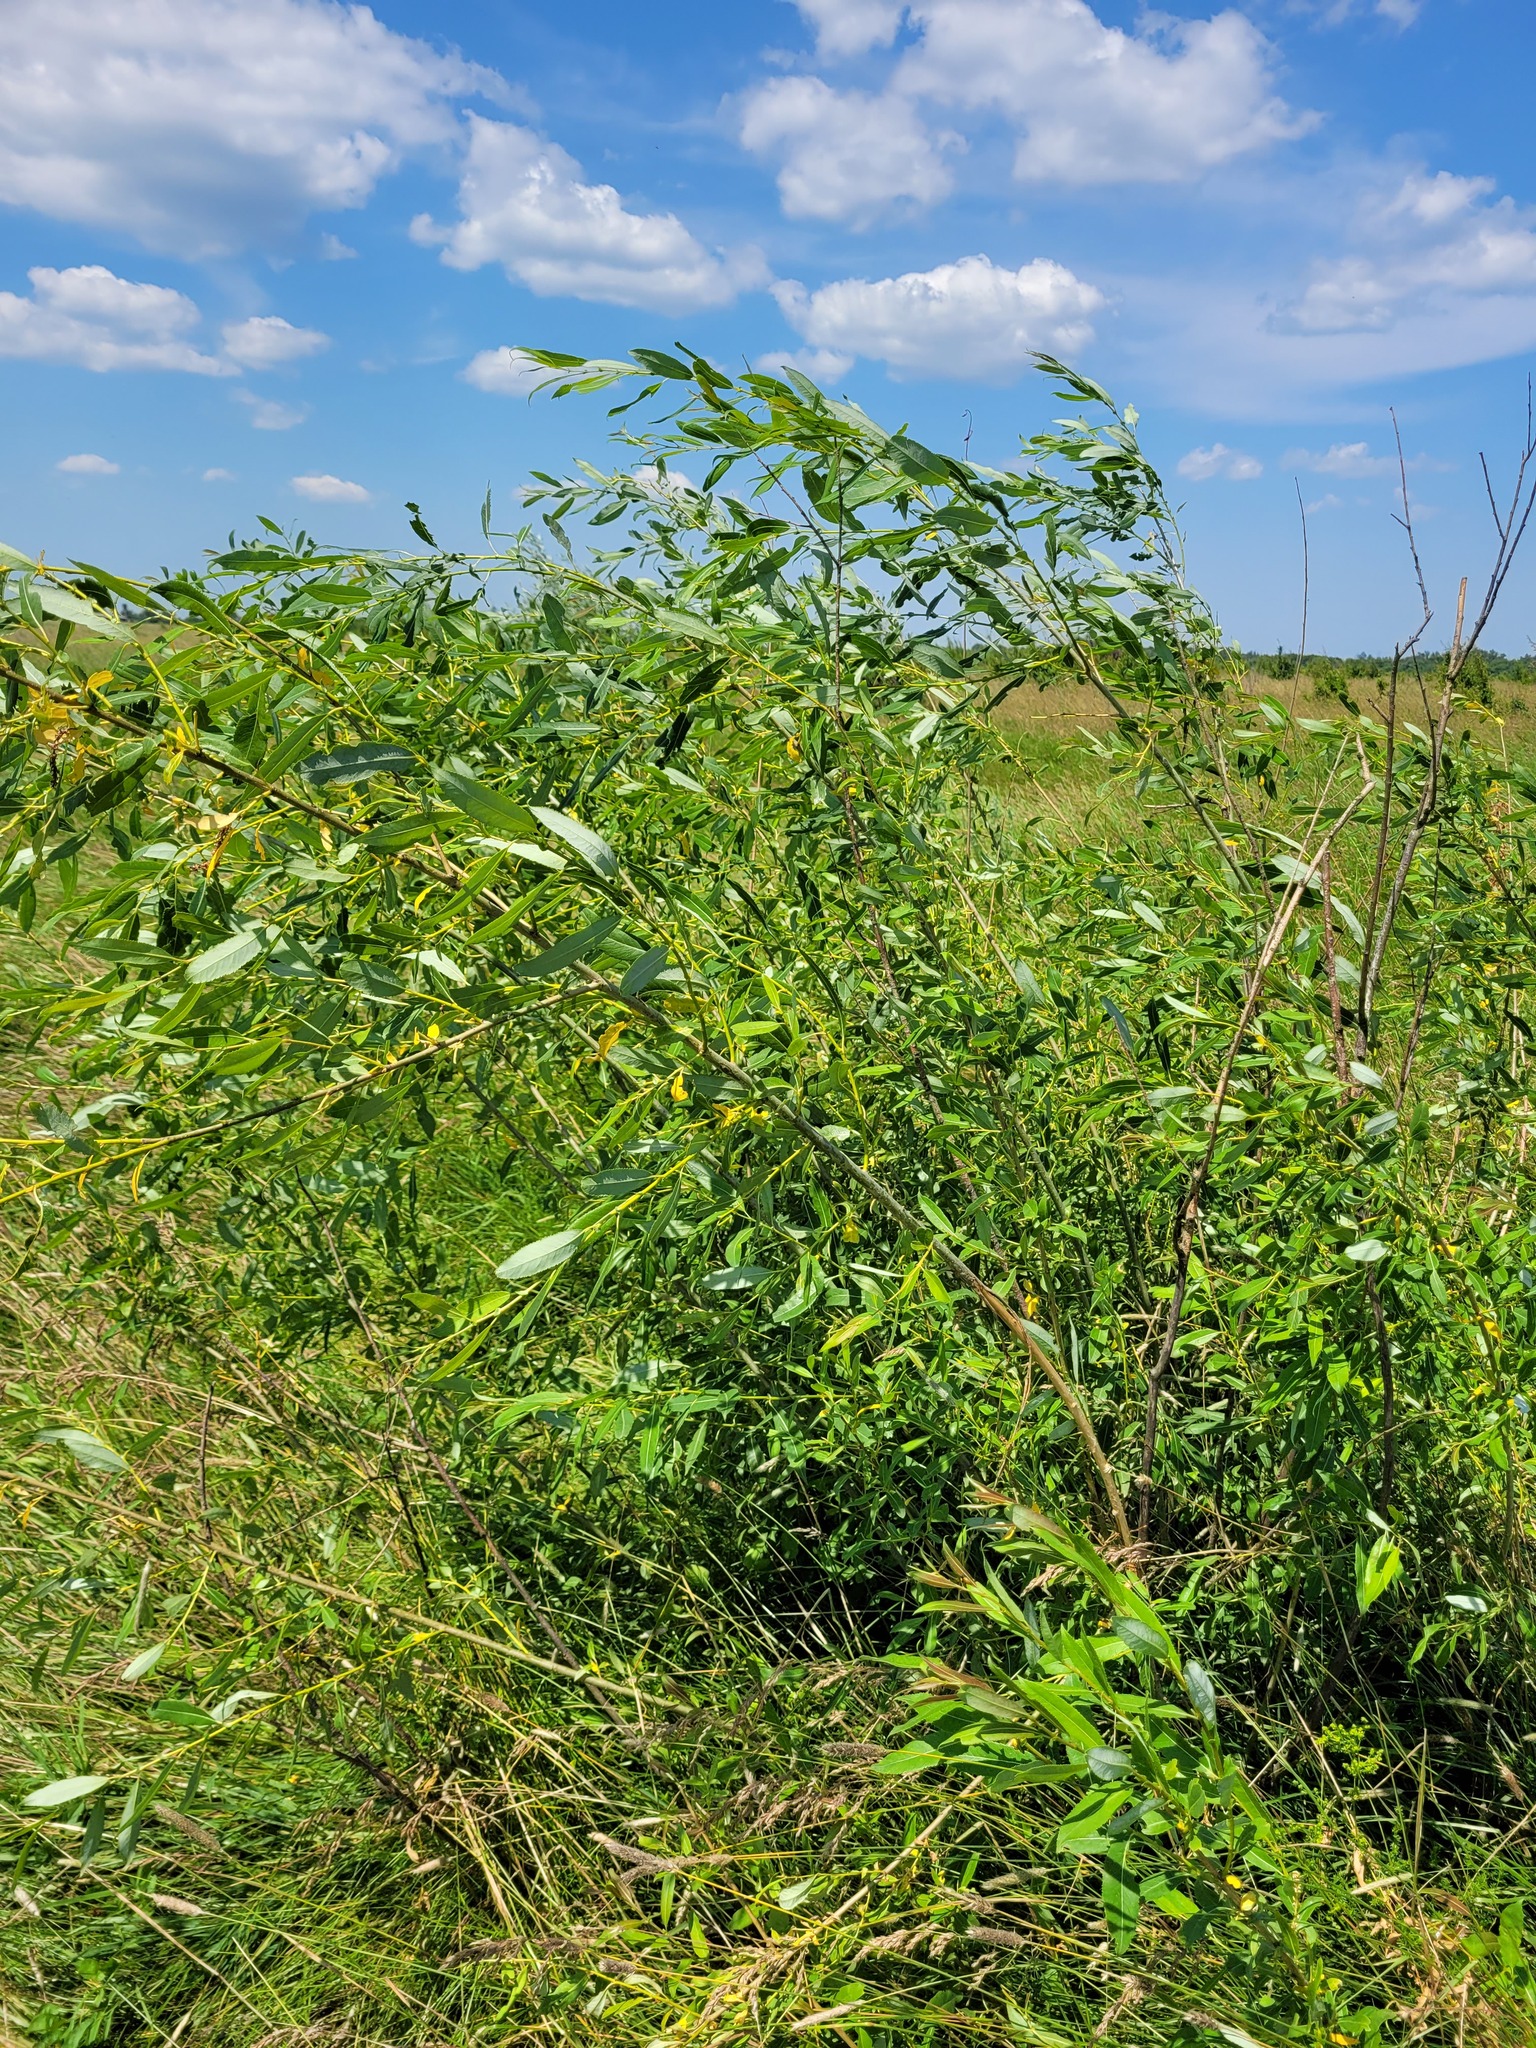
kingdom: Plantae
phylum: Tracheophyta
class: Magnoliopsida
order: Malpighiales
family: Salicaceae
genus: Salix
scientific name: Salix triandra
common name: Almond willow
